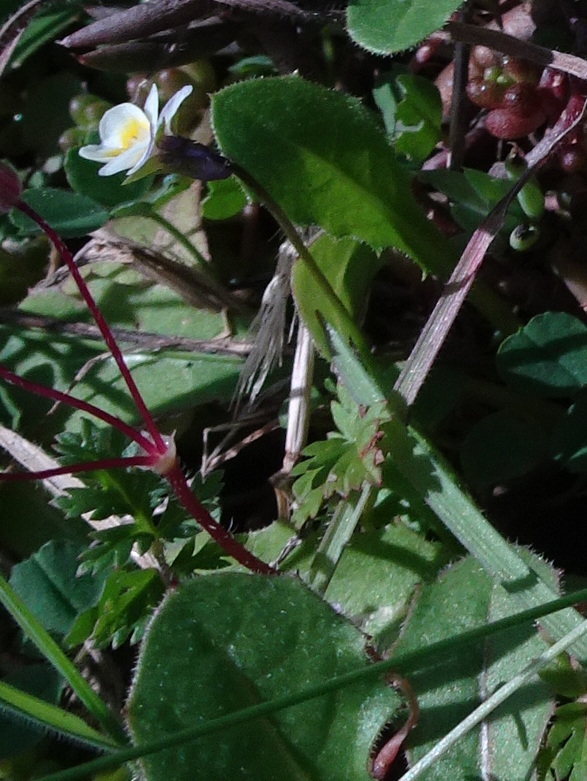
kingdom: Plantae
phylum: Tracheophyta
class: Magnoliopsida
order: Malpighiales
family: Violaceae
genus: Viola
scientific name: Viola kitaibeliana
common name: Dwarf pansy
